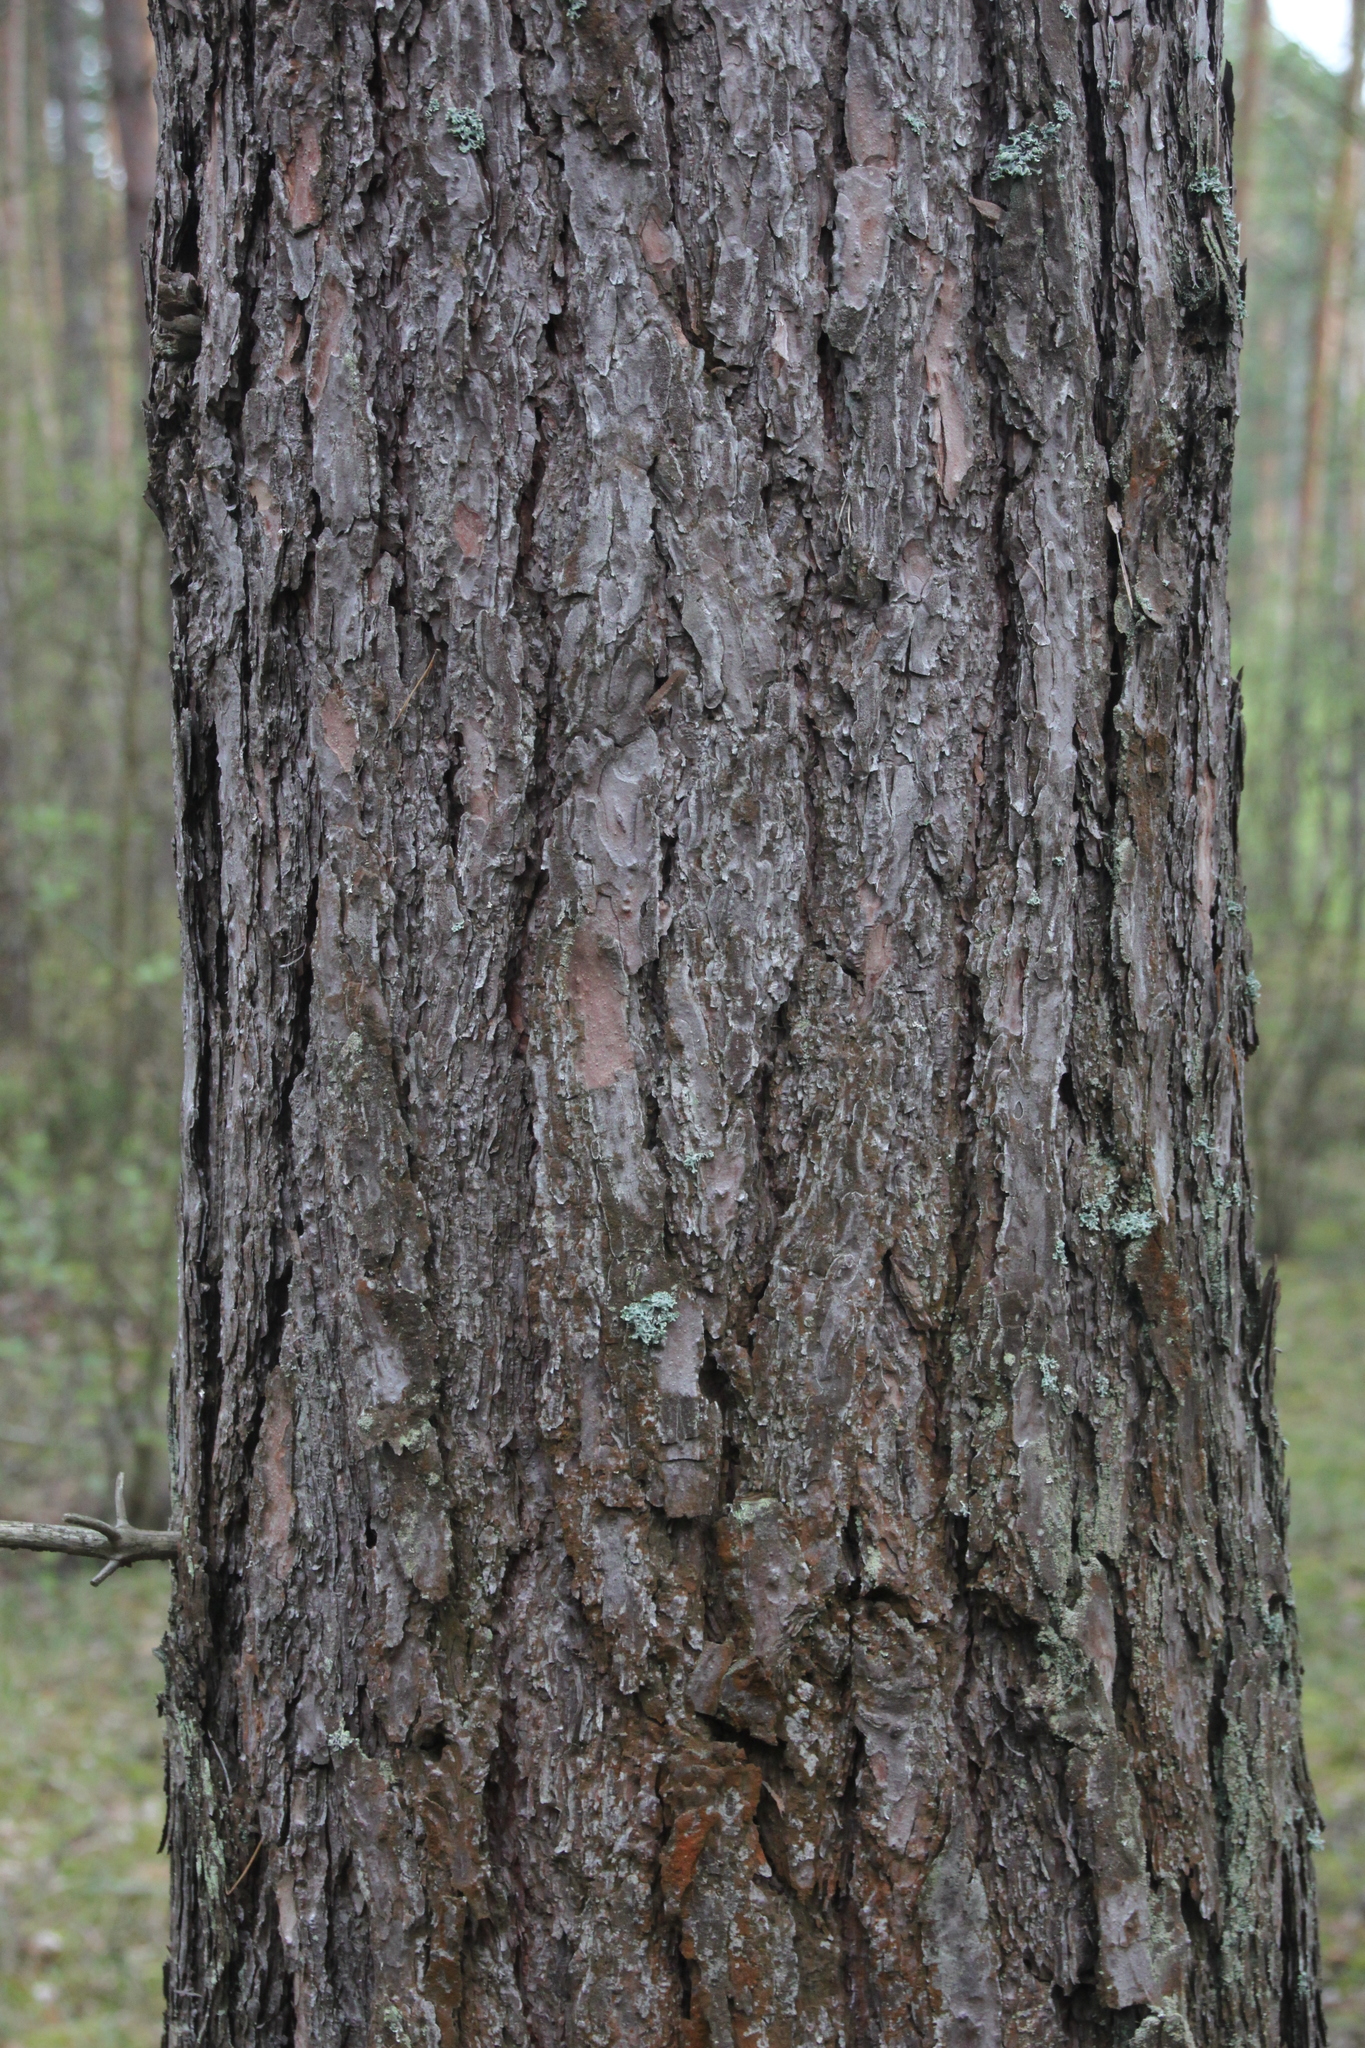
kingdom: Plantae
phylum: Tracheophyta
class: Pinopsida
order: Pinales
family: Pinaceae
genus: Pinus
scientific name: Pinus sylvestris
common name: Scots pine
